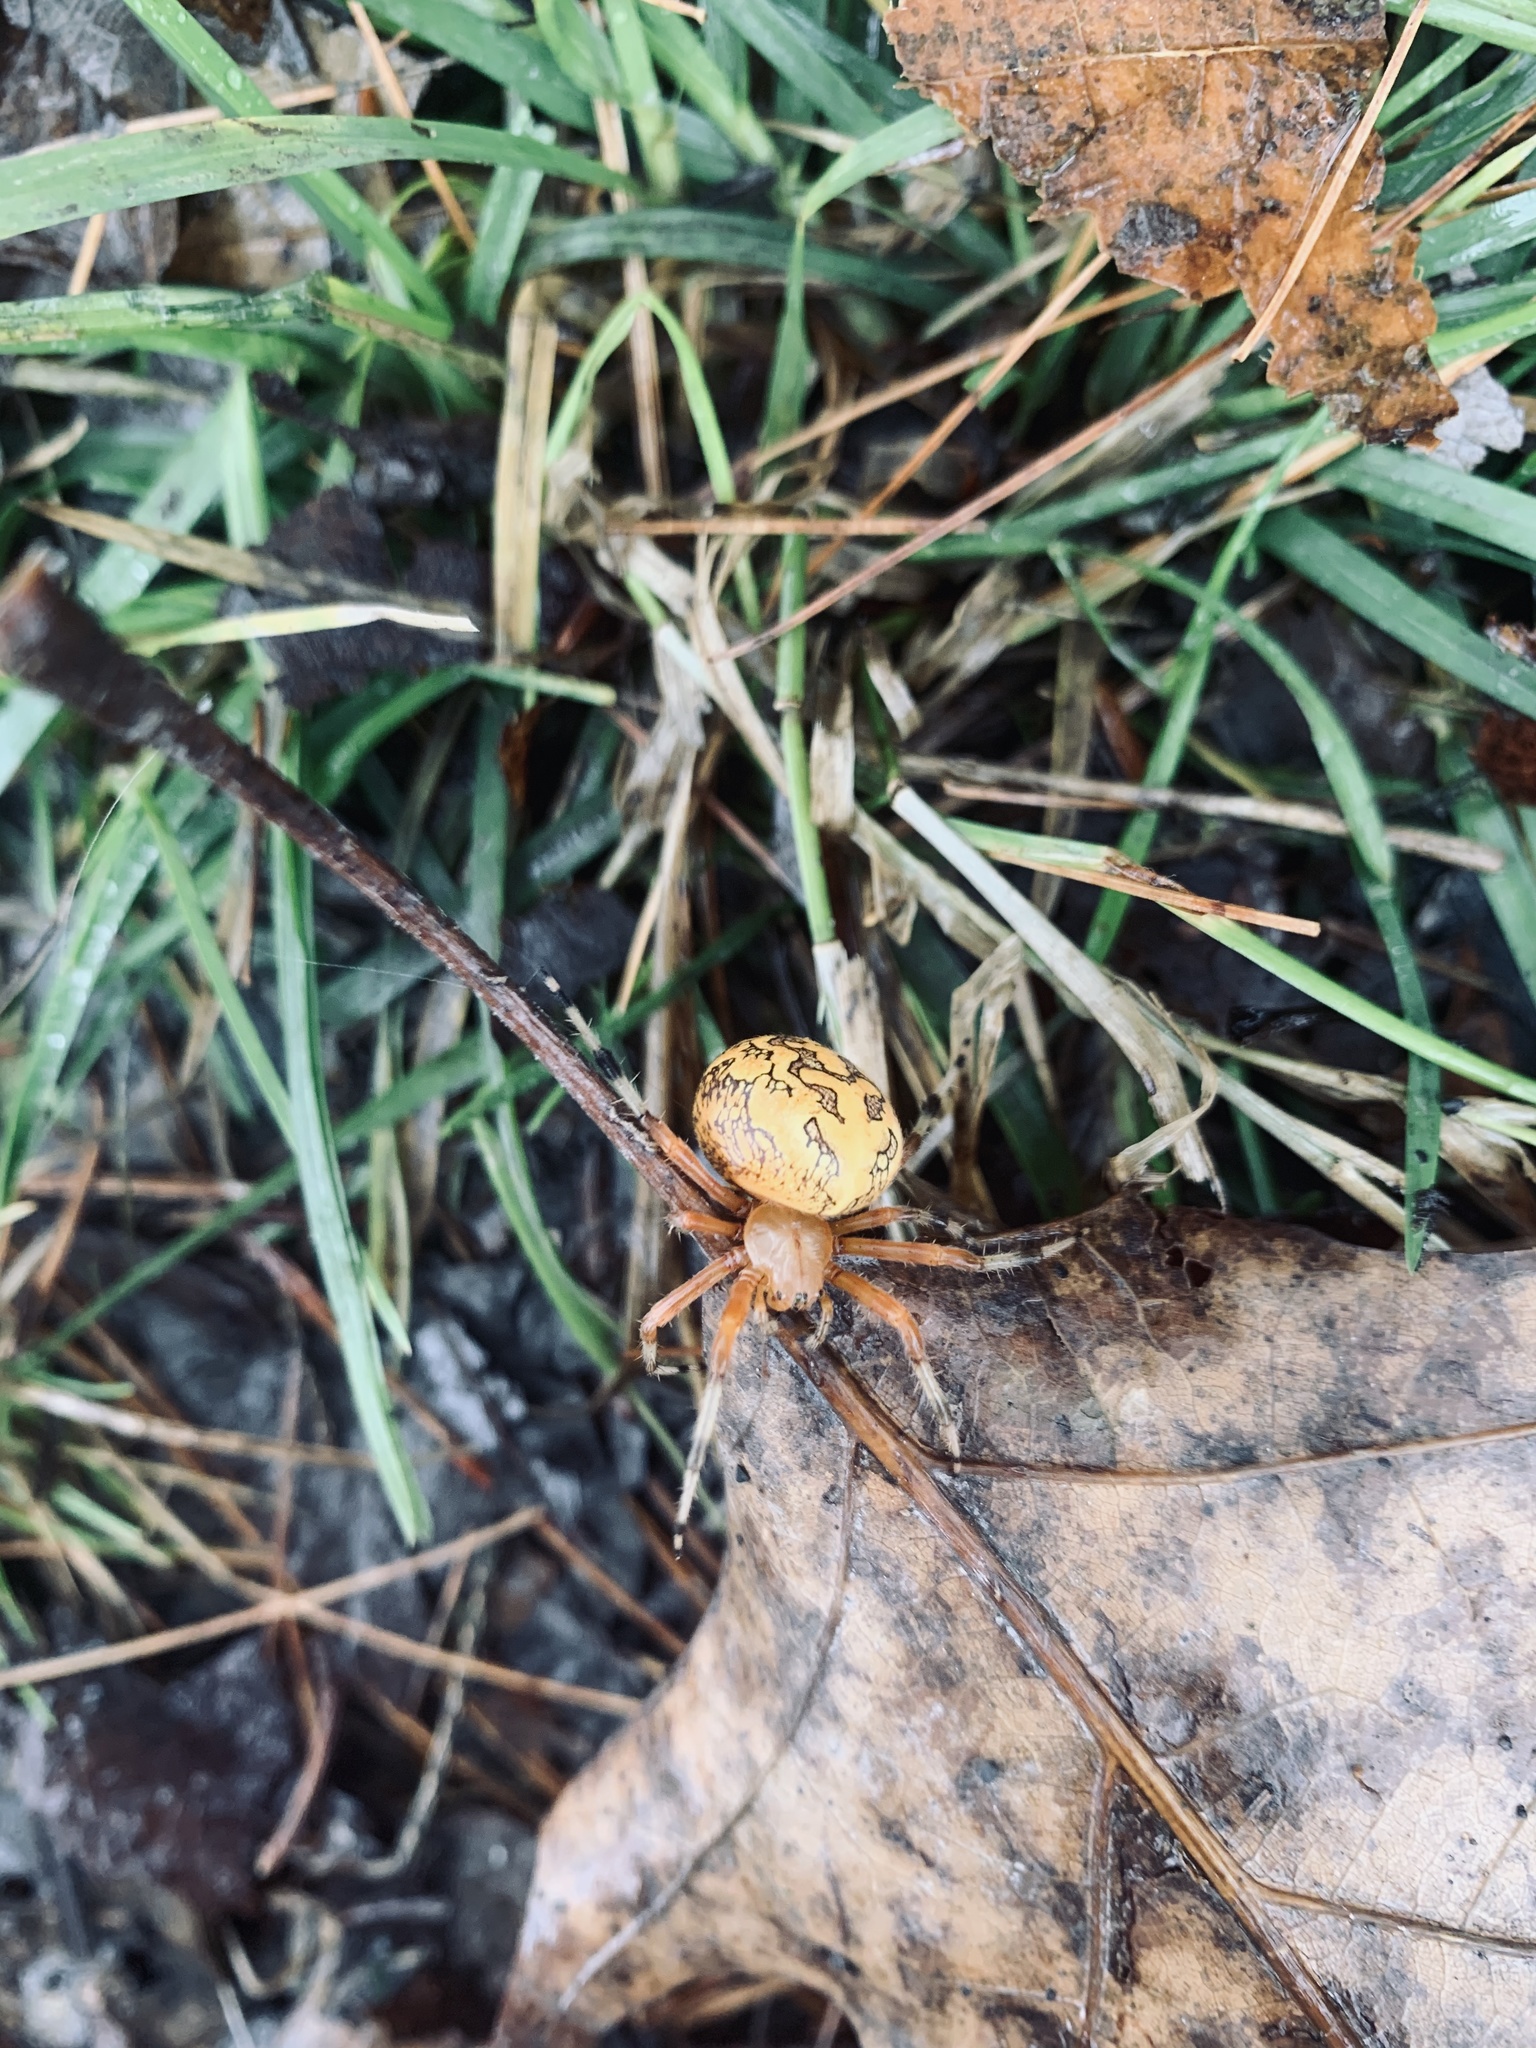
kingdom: Animalia
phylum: Arthropoda
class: Arachnida
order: Araneae
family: Araneidae
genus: Araneus
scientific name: Araneus marmoreus
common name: Marbled orbweaver
